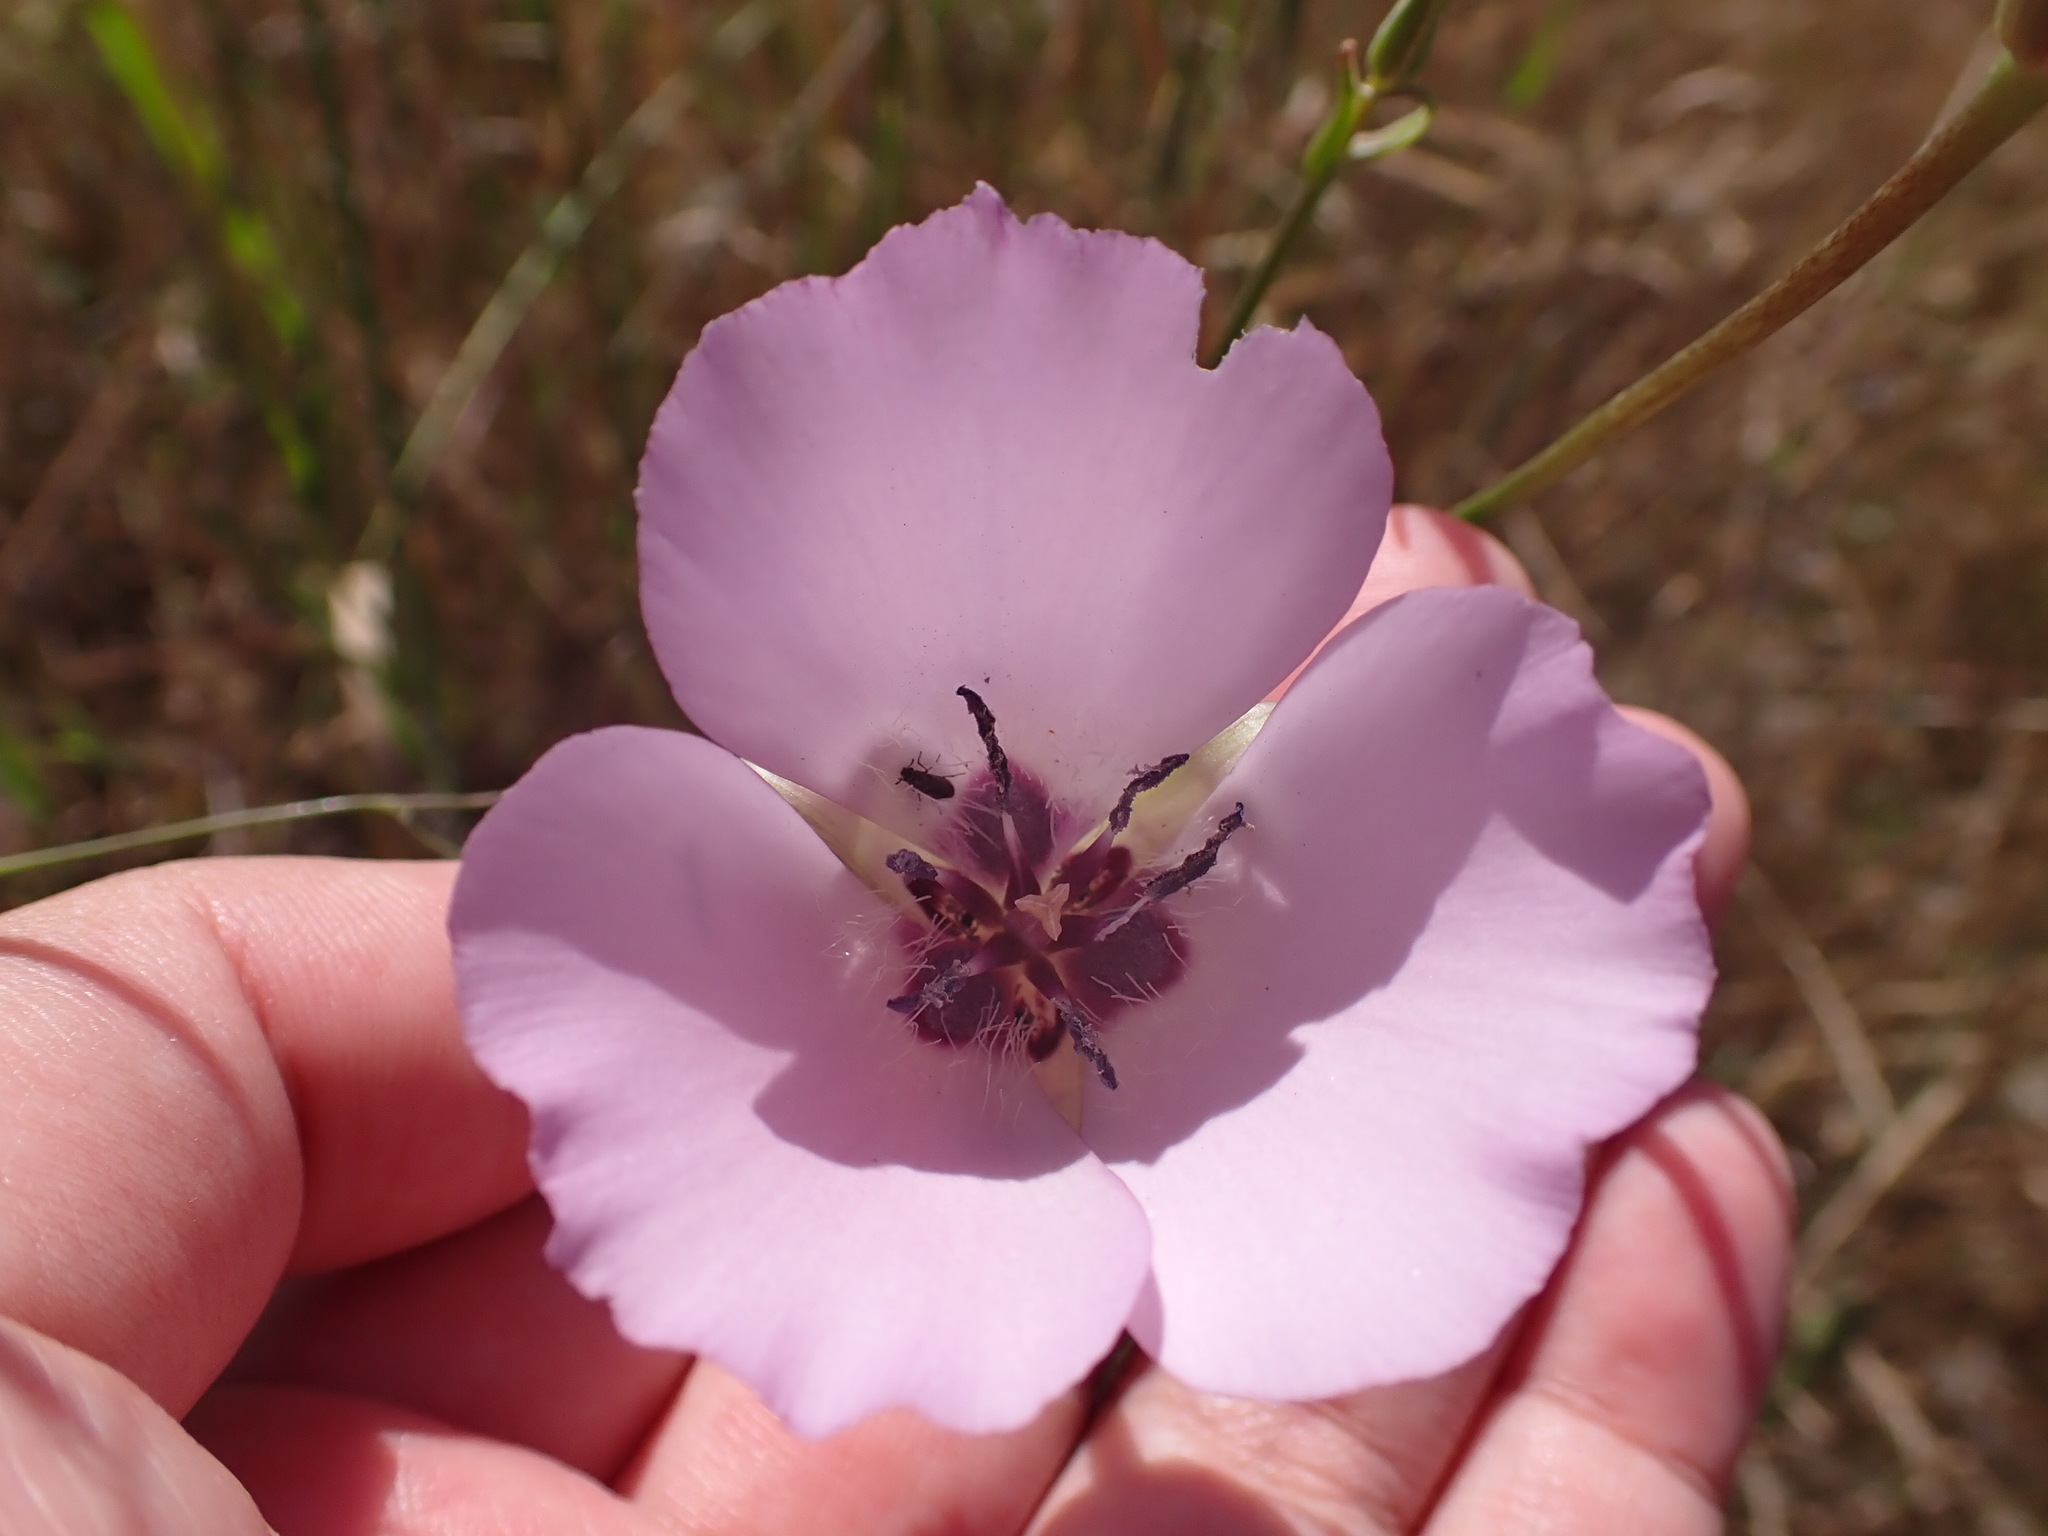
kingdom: Plantae
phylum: Tracheophyta
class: Liliopsida
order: Liliales
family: Liliaceae
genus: Calochortus
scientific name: Calochortus splendens
